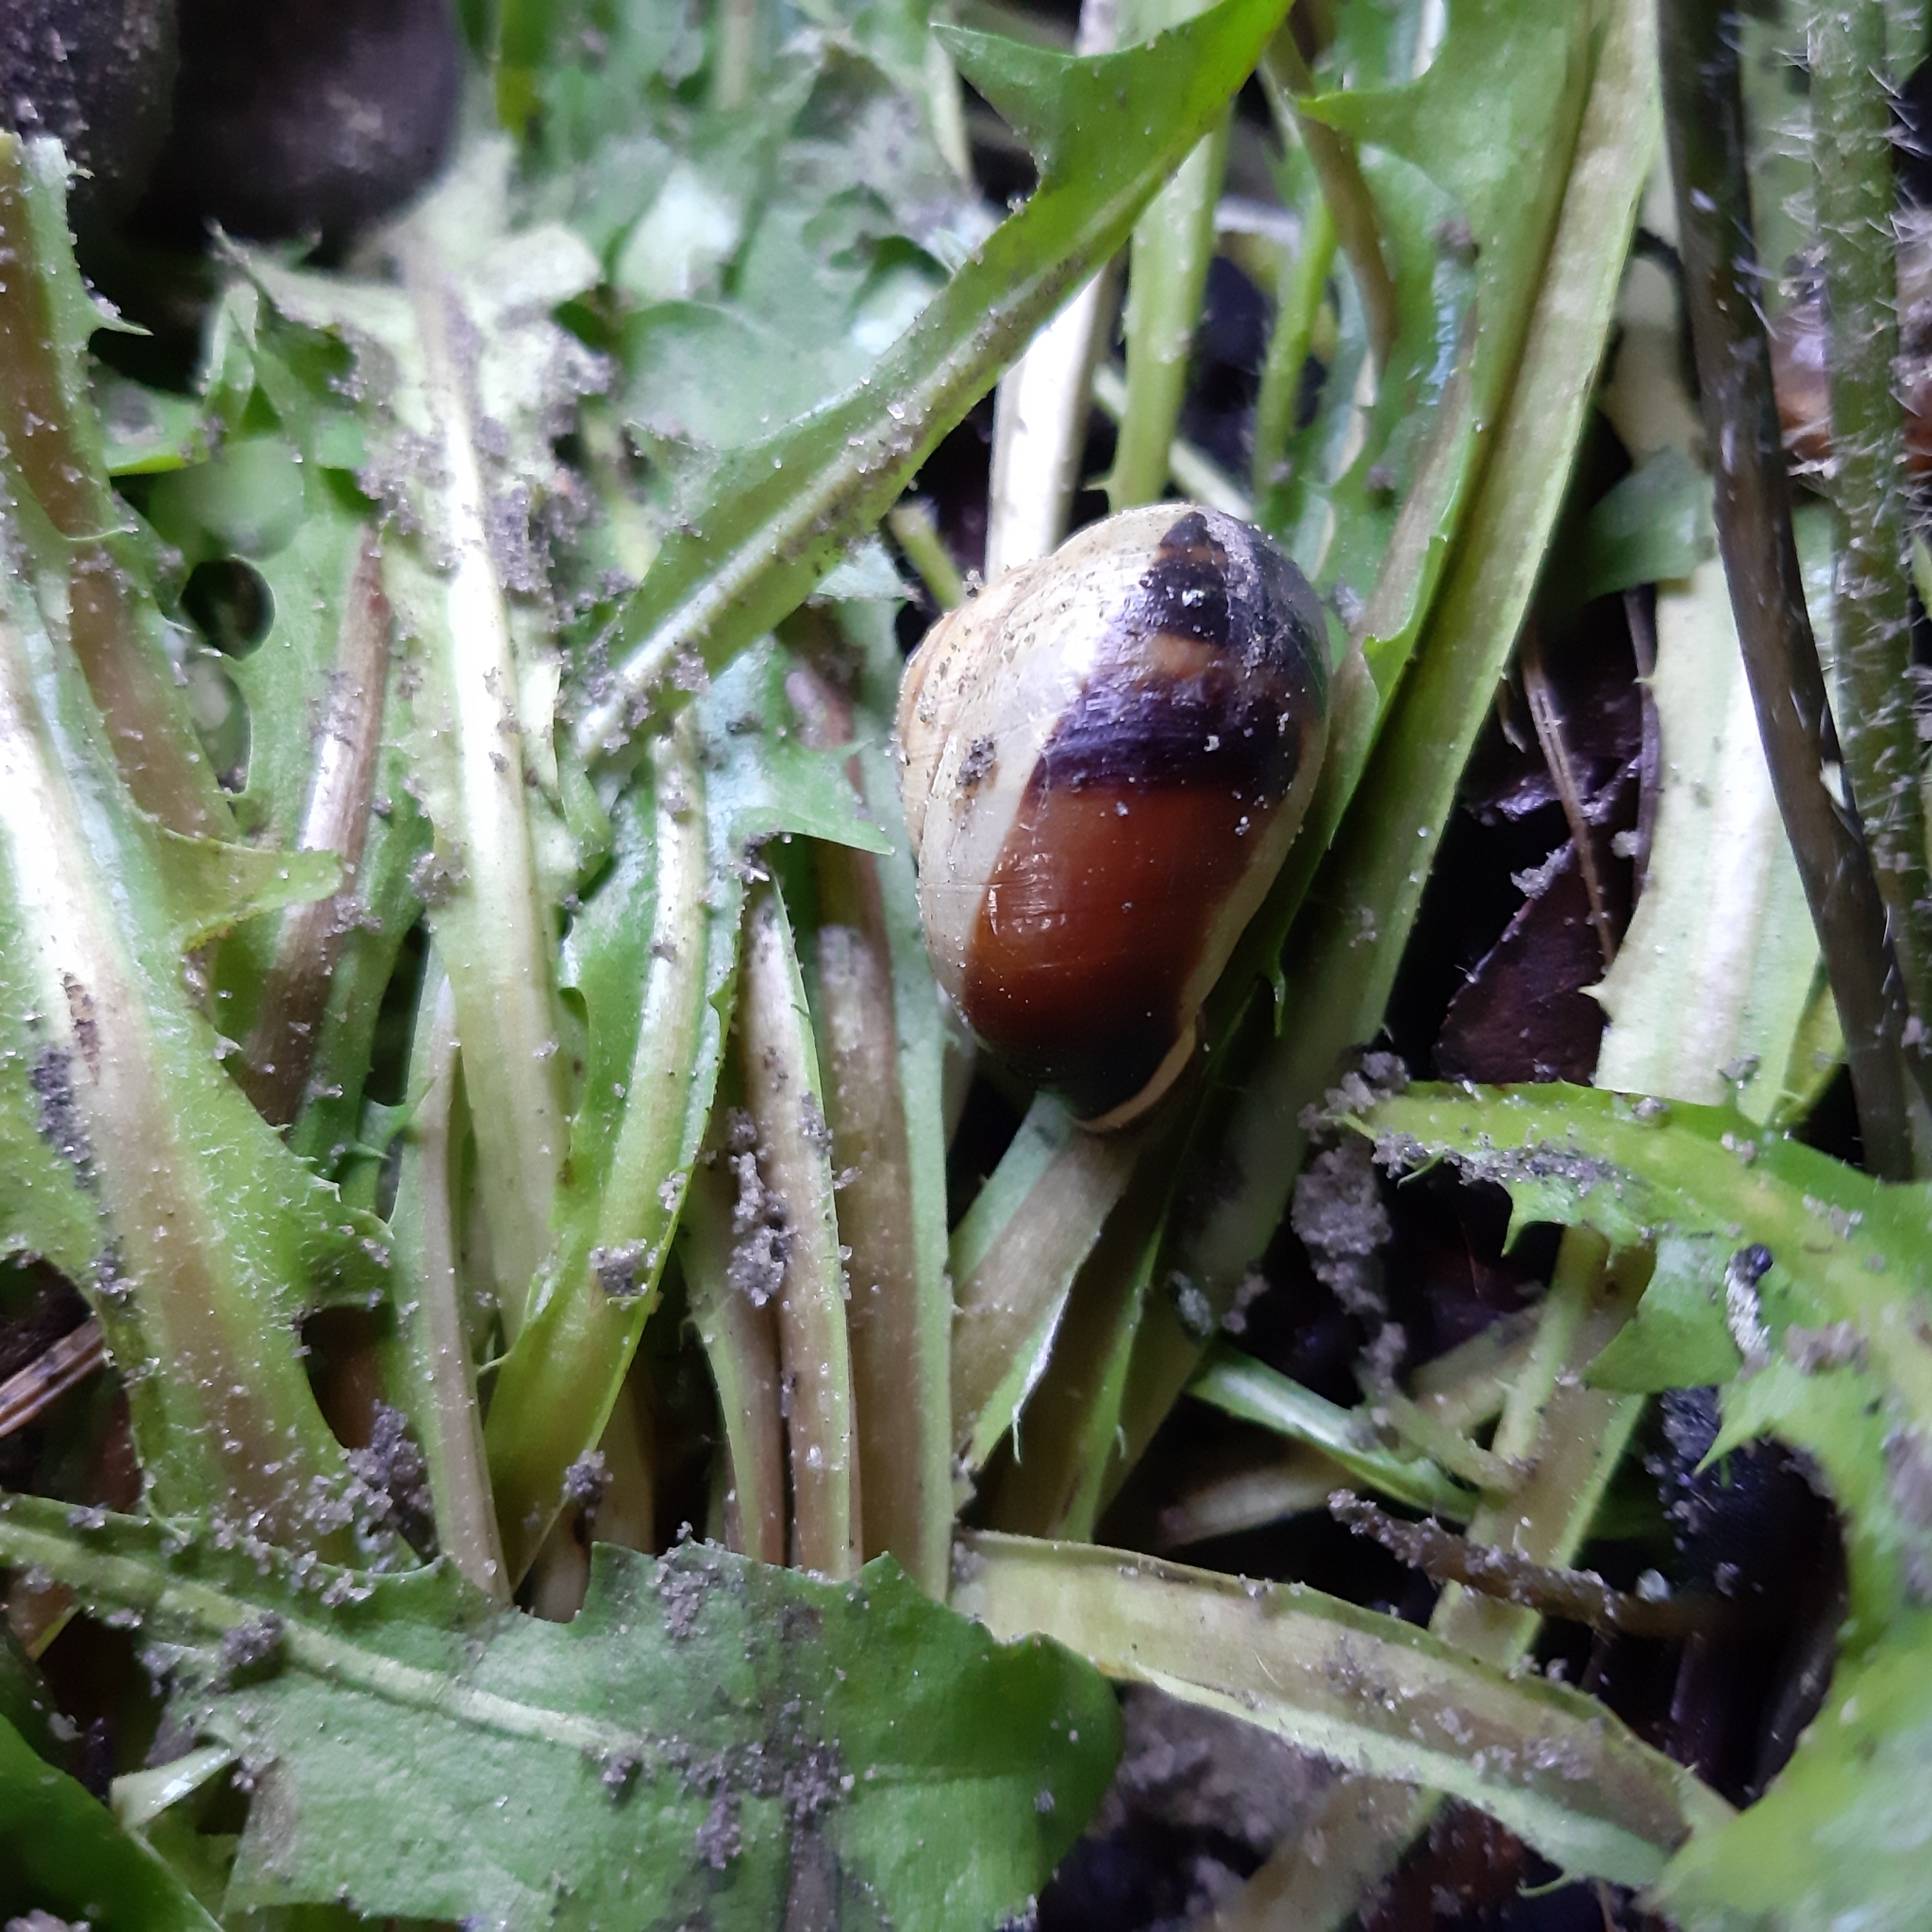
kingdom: Animalia
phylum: Mollusca
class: Gastropoda
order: Stylommatophora
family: Helicidae
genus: Cepaea
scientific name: Cepaea nemoralis
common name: Grovesnail
